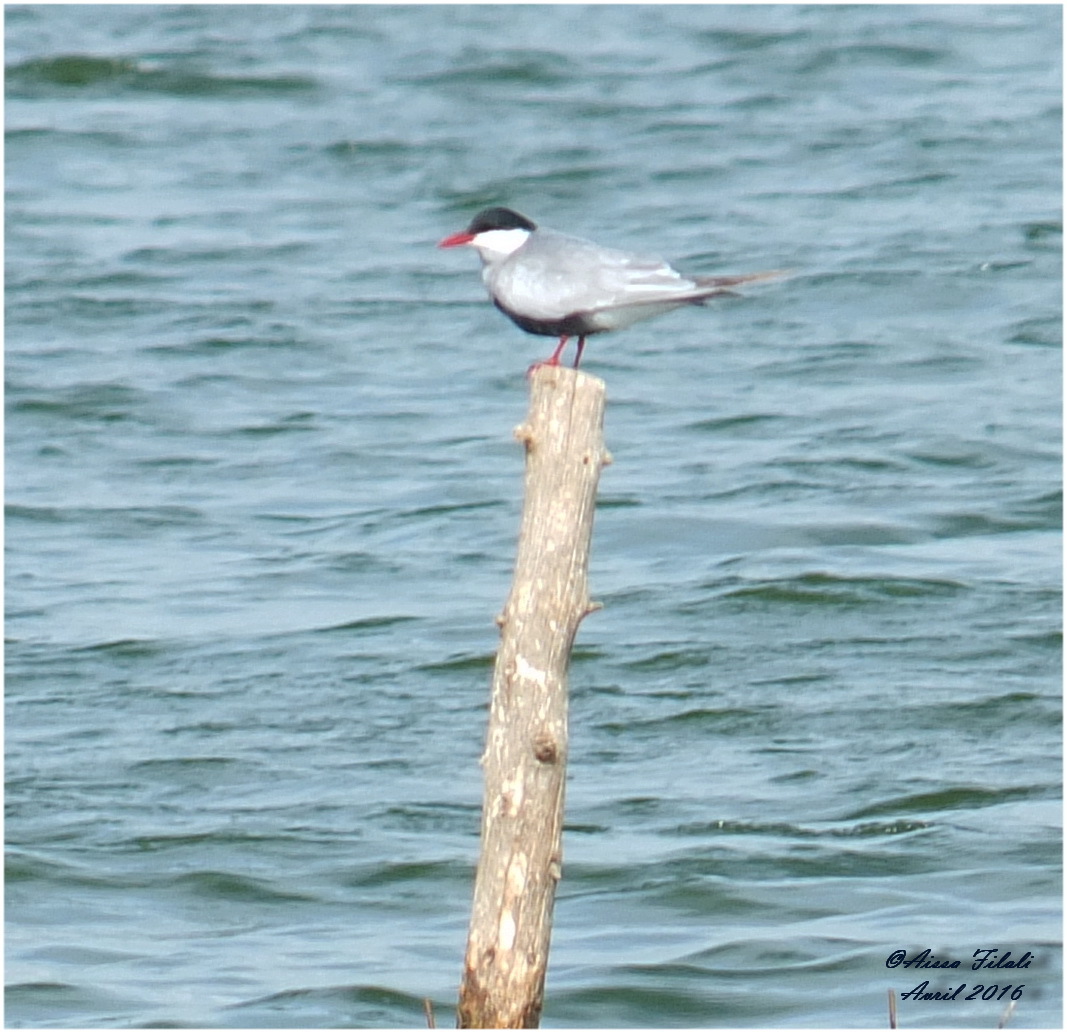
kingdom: Animalia
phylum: Chordata
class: Aves
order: Charadriiformes
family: Laridae
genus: Chlidonias
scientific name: Chlidonias hybrida
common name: Whiskered tern
